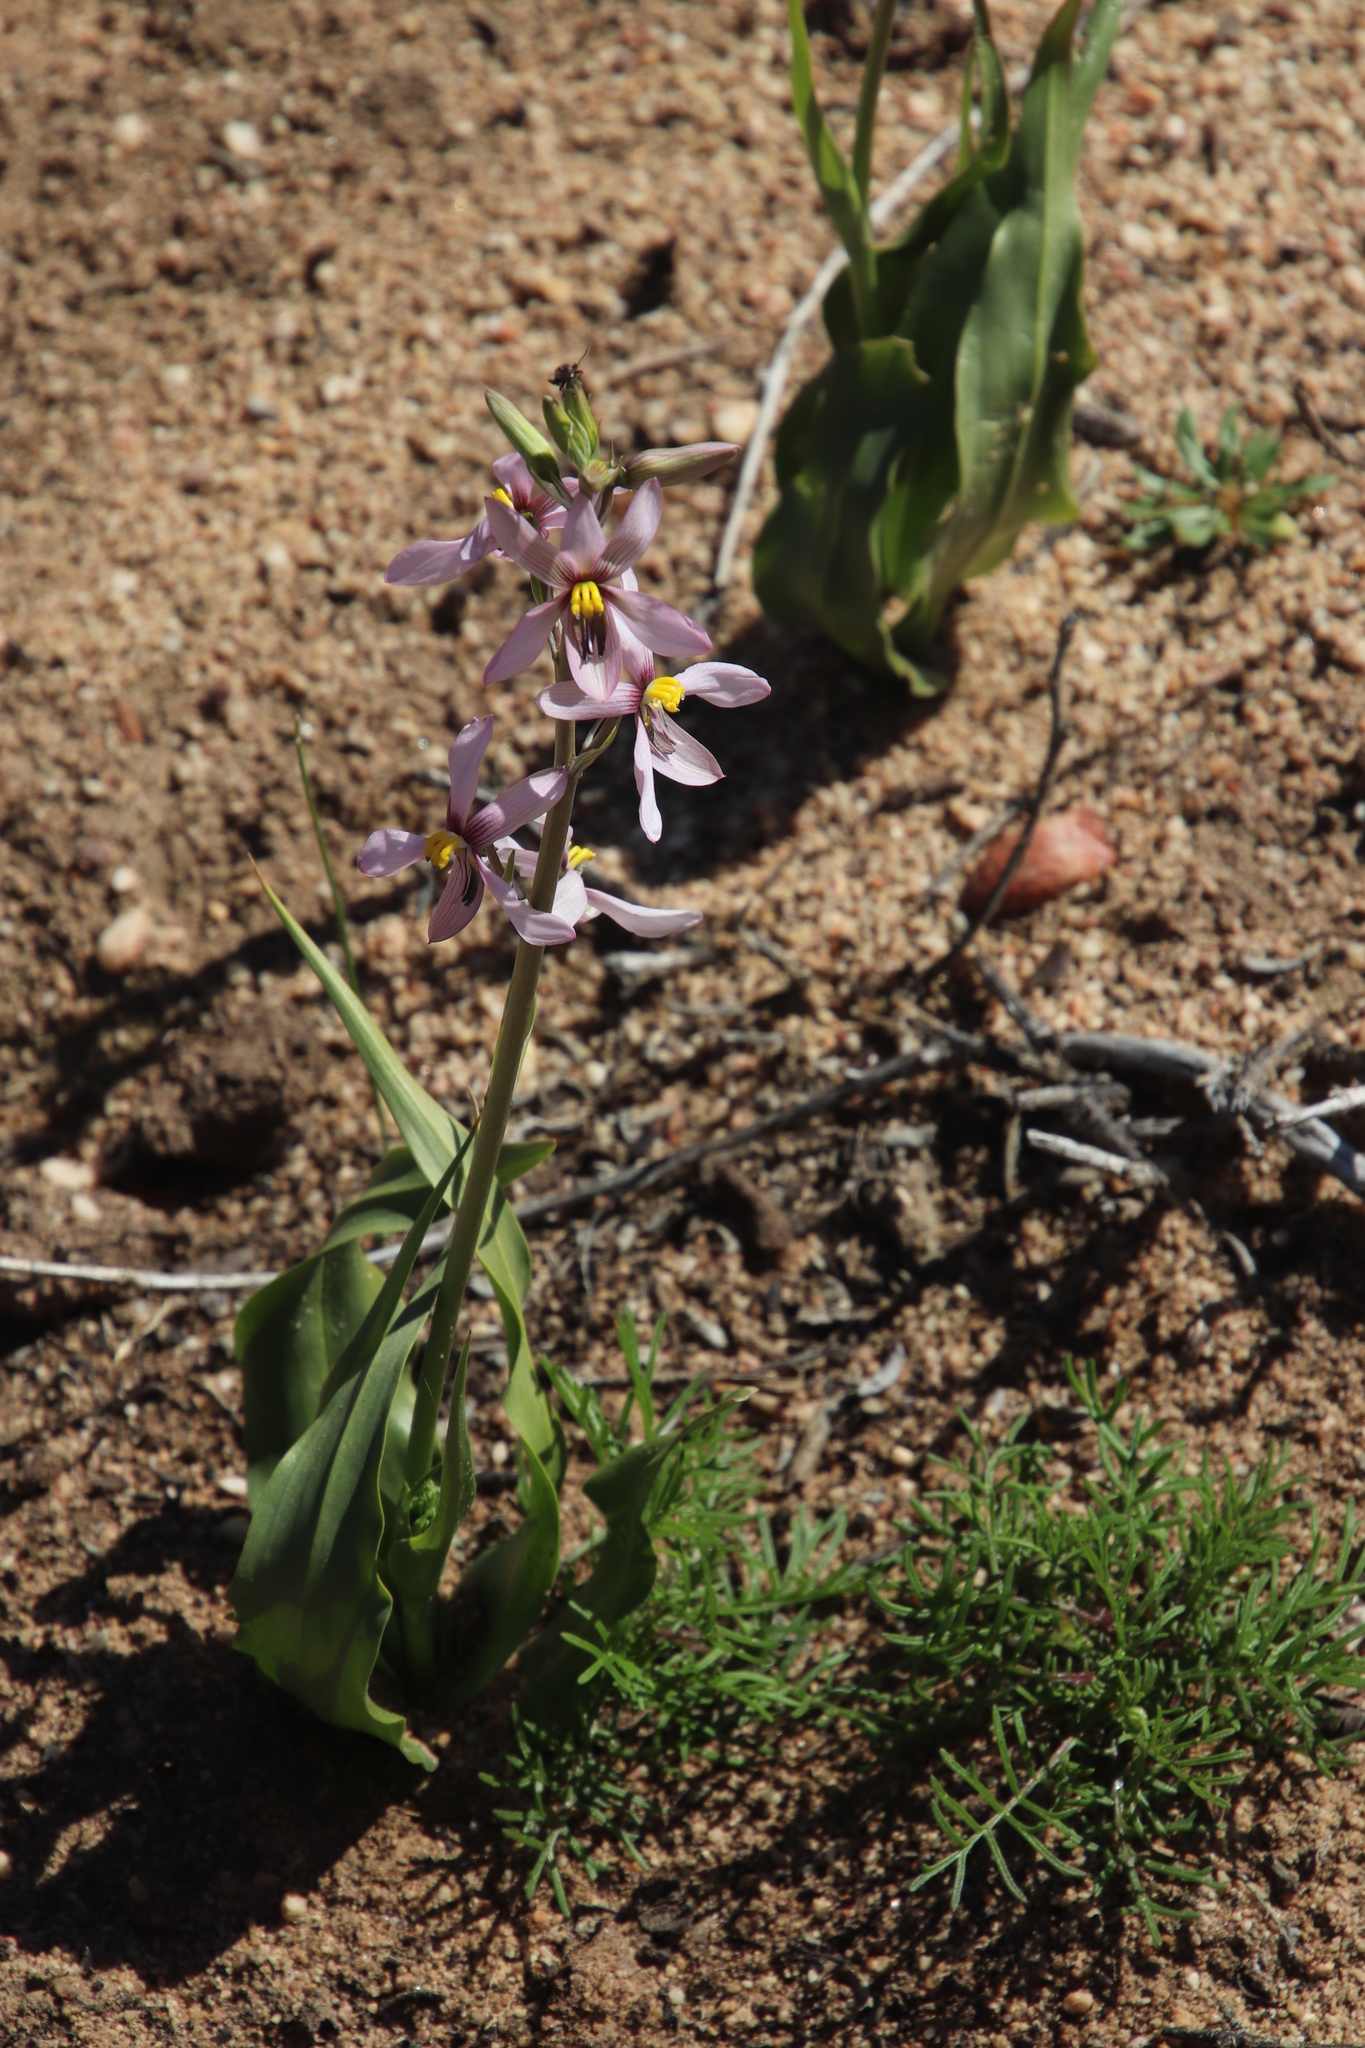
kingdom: Plantae
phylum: Tracheophyta
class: Liliopsida
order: Asparagales
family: Tecophilaeaceae
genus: Cyanella
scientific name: Cyanella hyacinthoides
